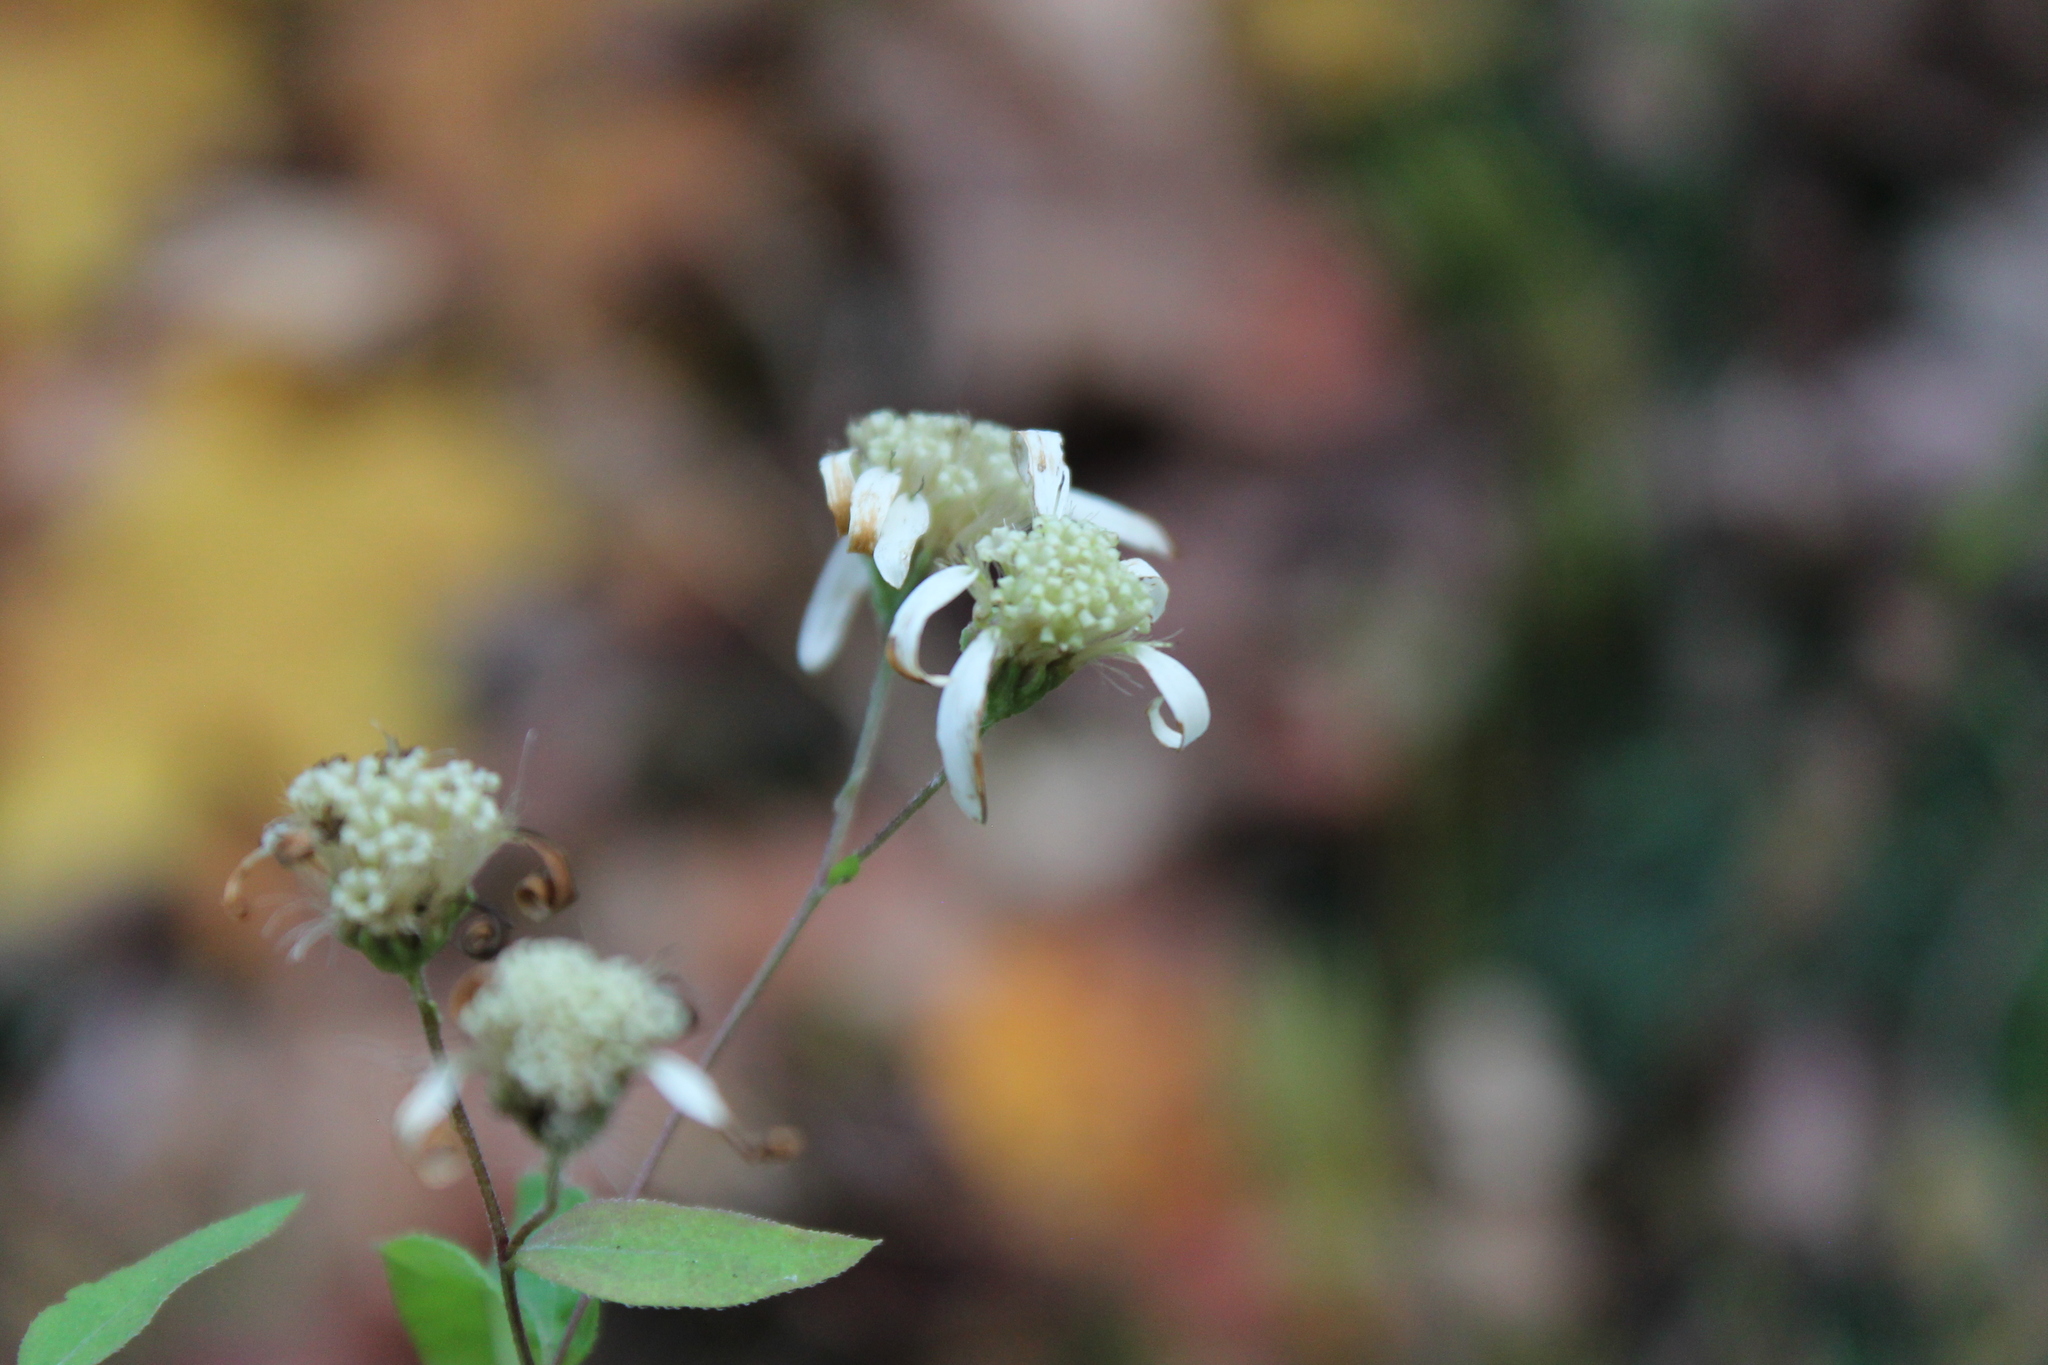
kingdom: Plantae
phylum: Tracheophyta
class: Magnoliopsida
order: Asterales
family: Asteraceae
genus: Doellingeria
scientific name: Doellingeria umbellata
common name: Flat-top white aster
